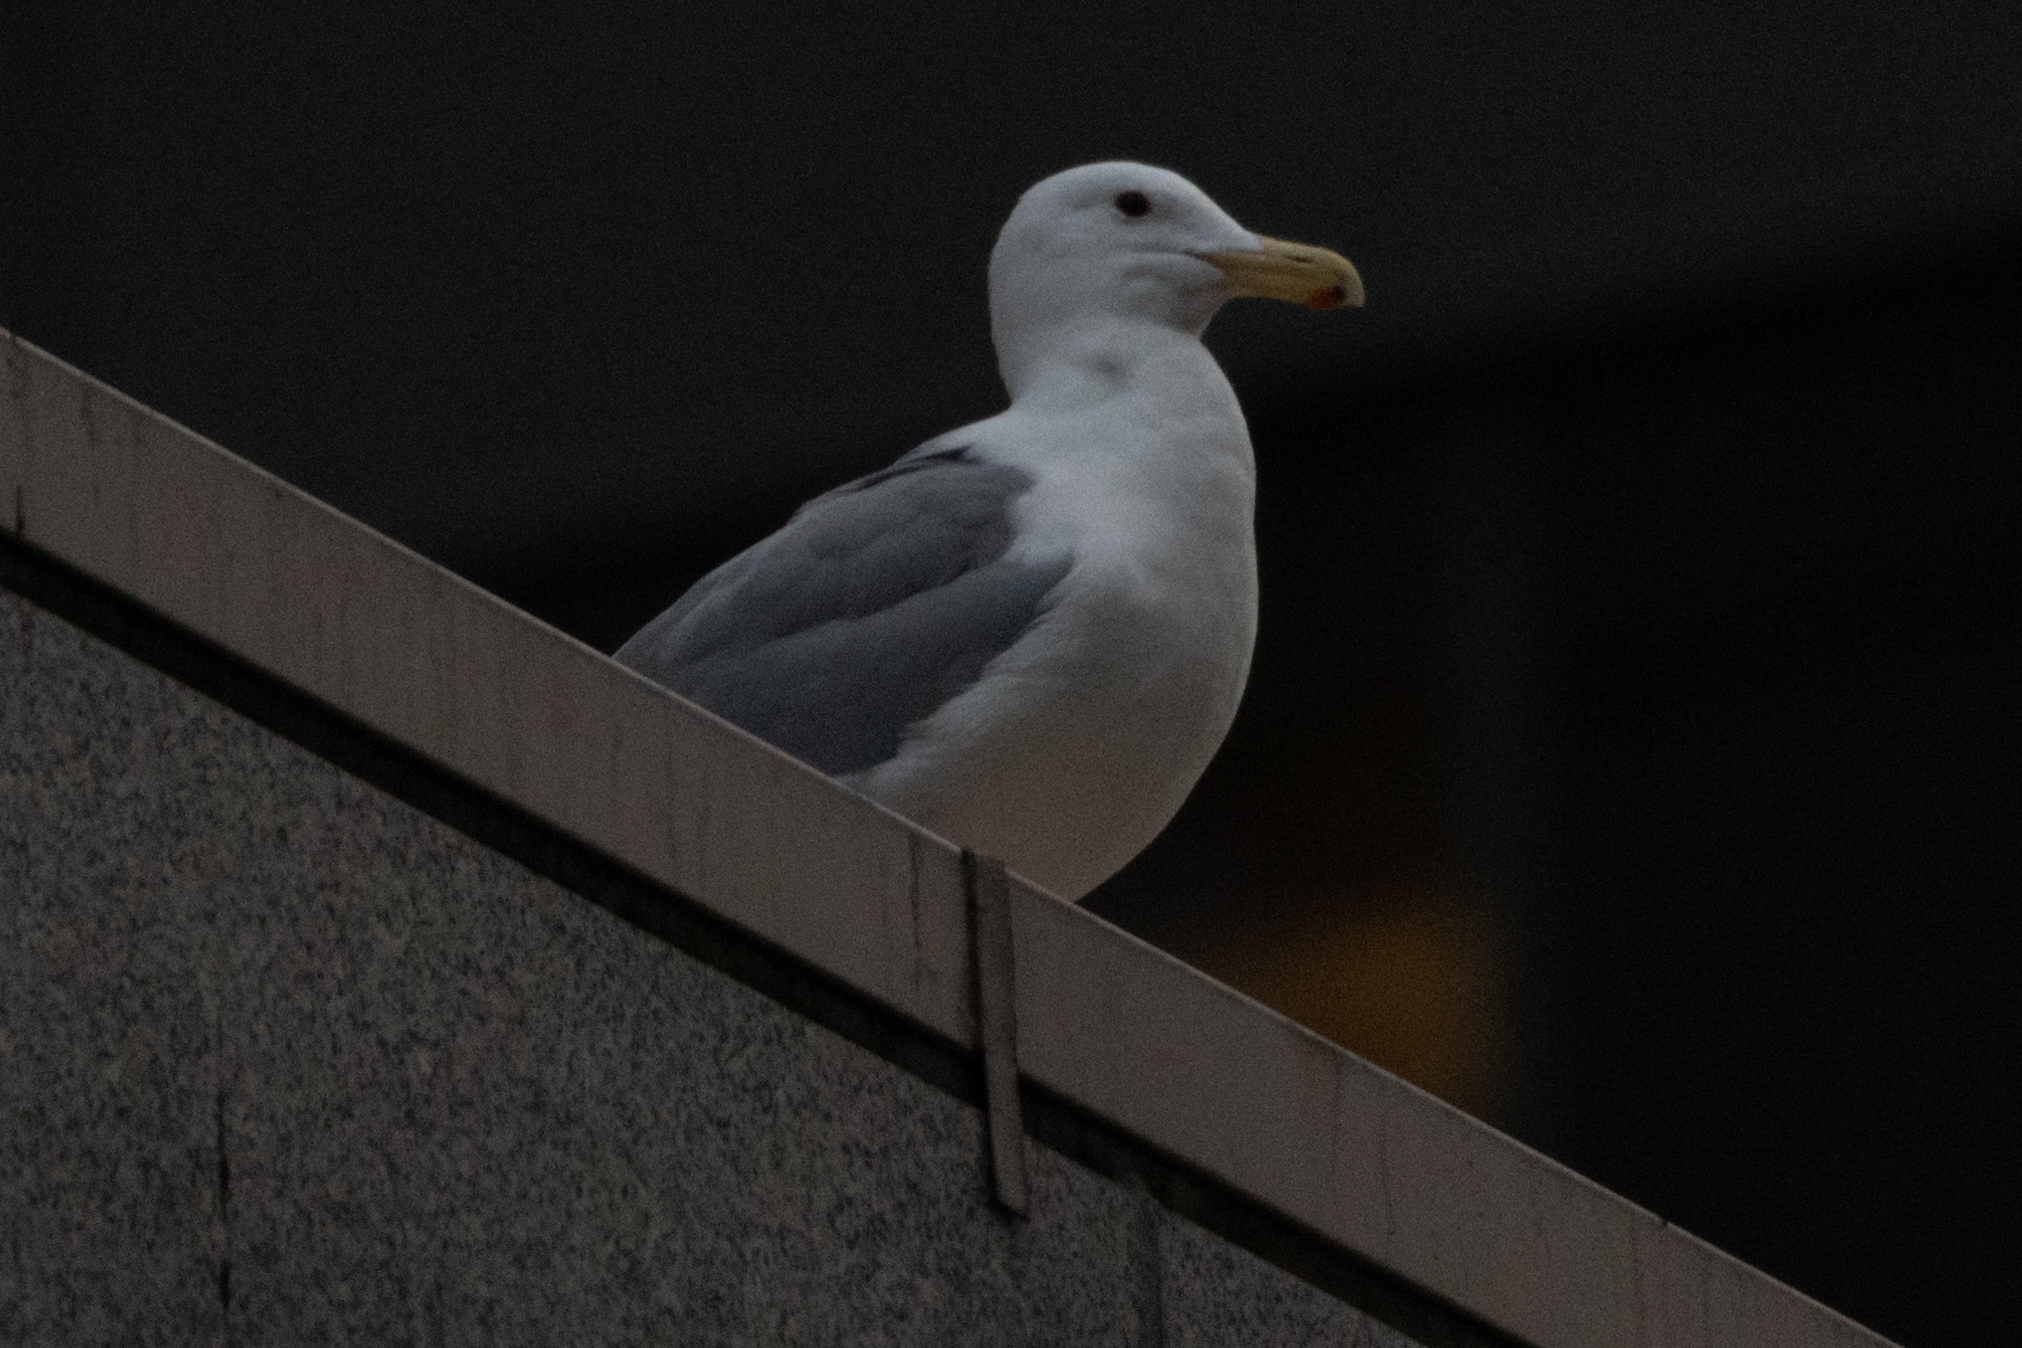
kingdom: Animalia
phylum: Chordata
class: Aves
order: Charadriiformes
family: Laridae
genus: Larus
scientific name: Larus
